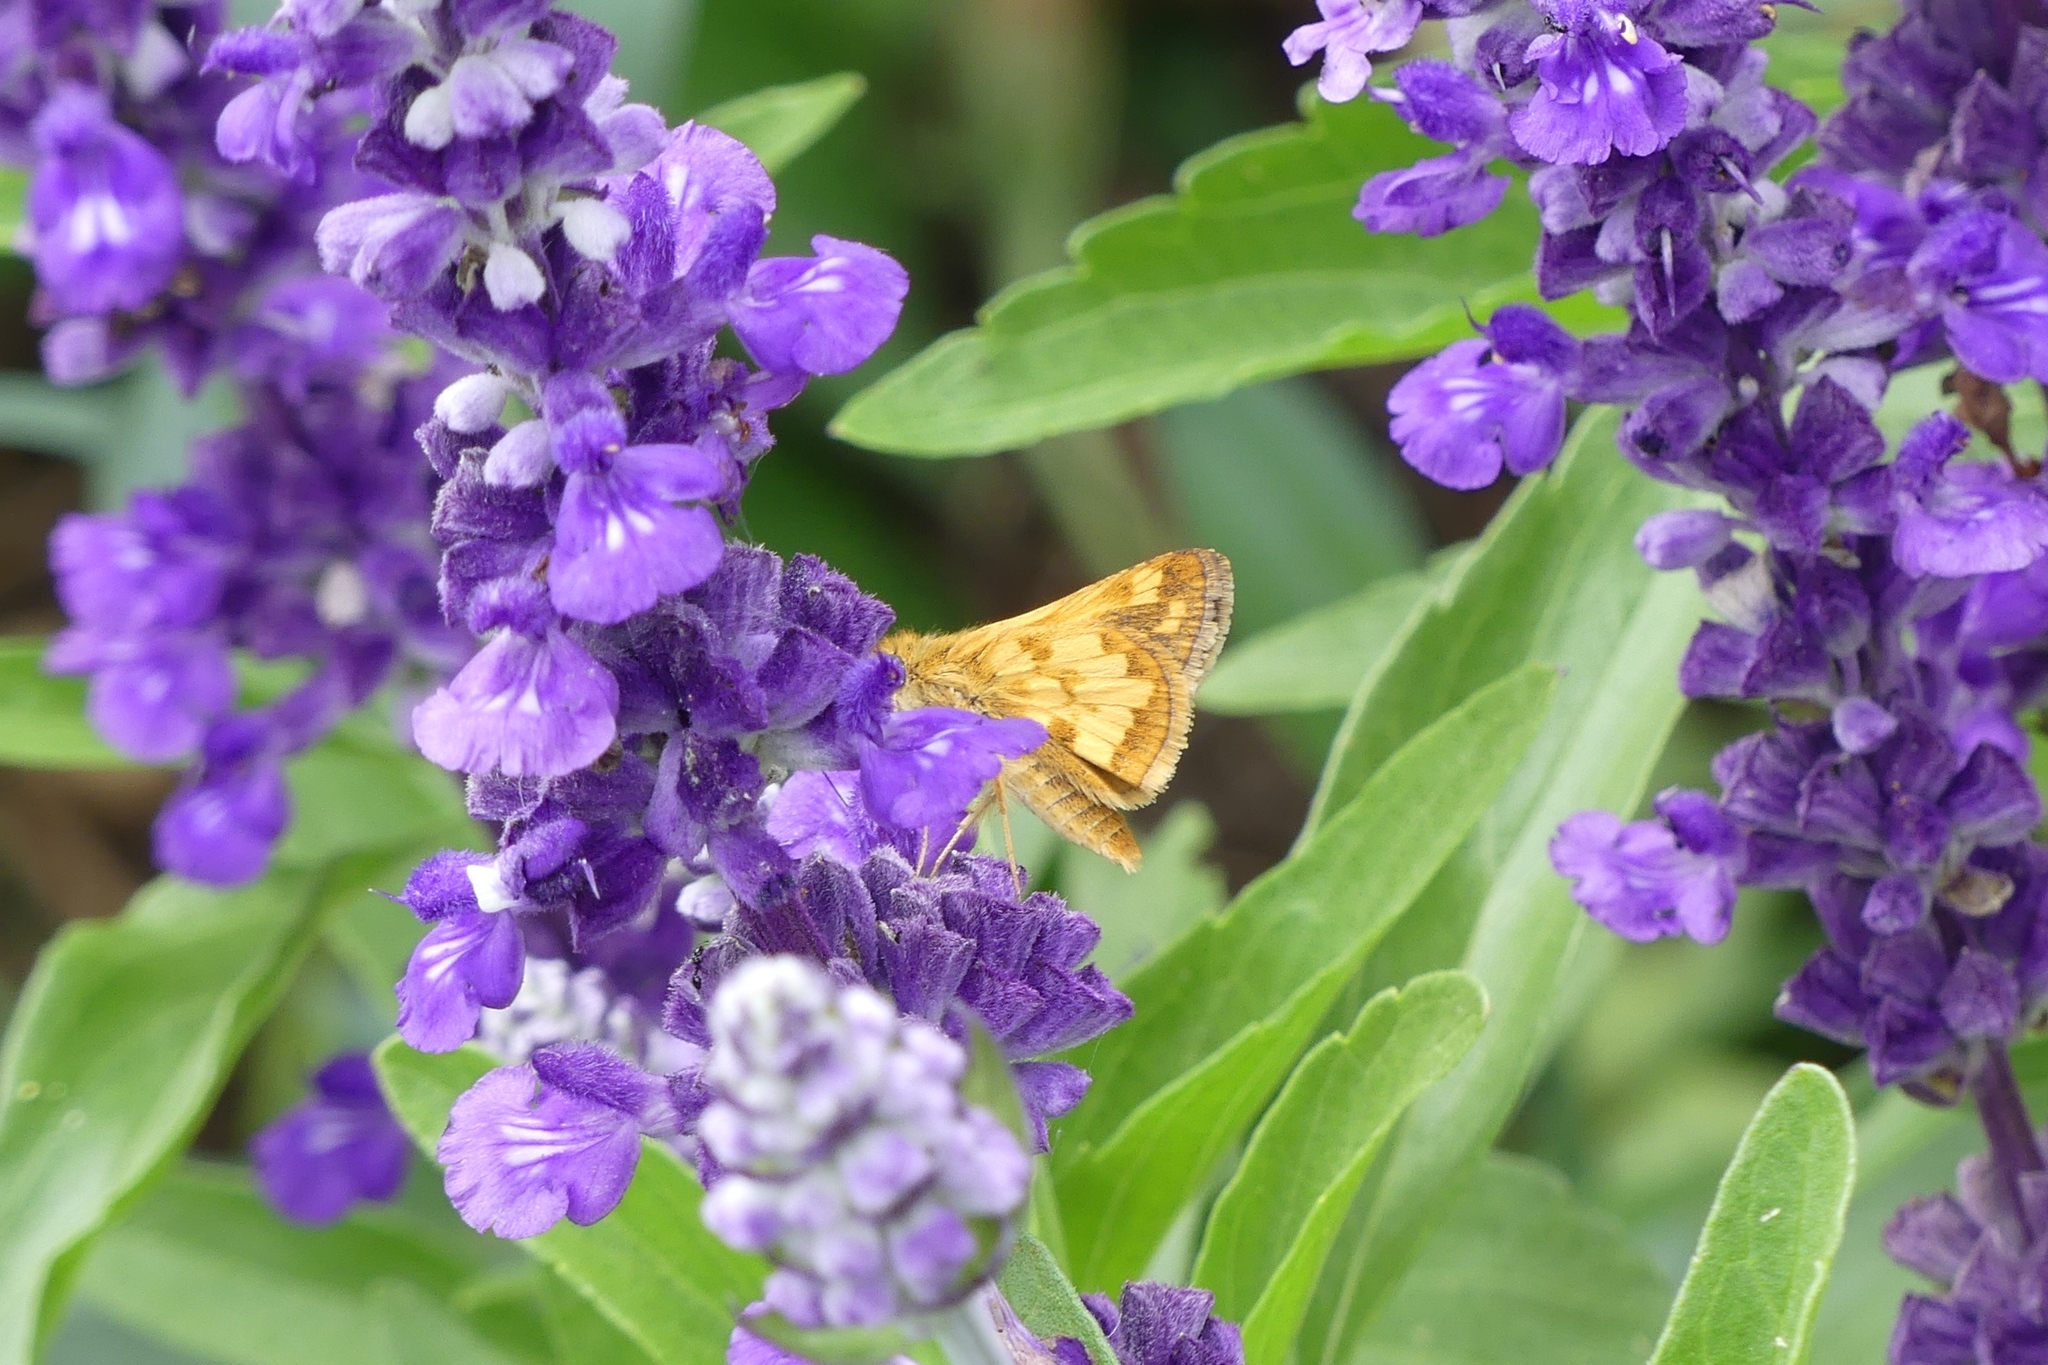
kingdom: Animalia
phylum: Arthropoda
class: Insecta
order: Lepidoptera
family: Hesperiidae
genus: Polites
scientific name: Polites coras
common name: Peck's skipper
